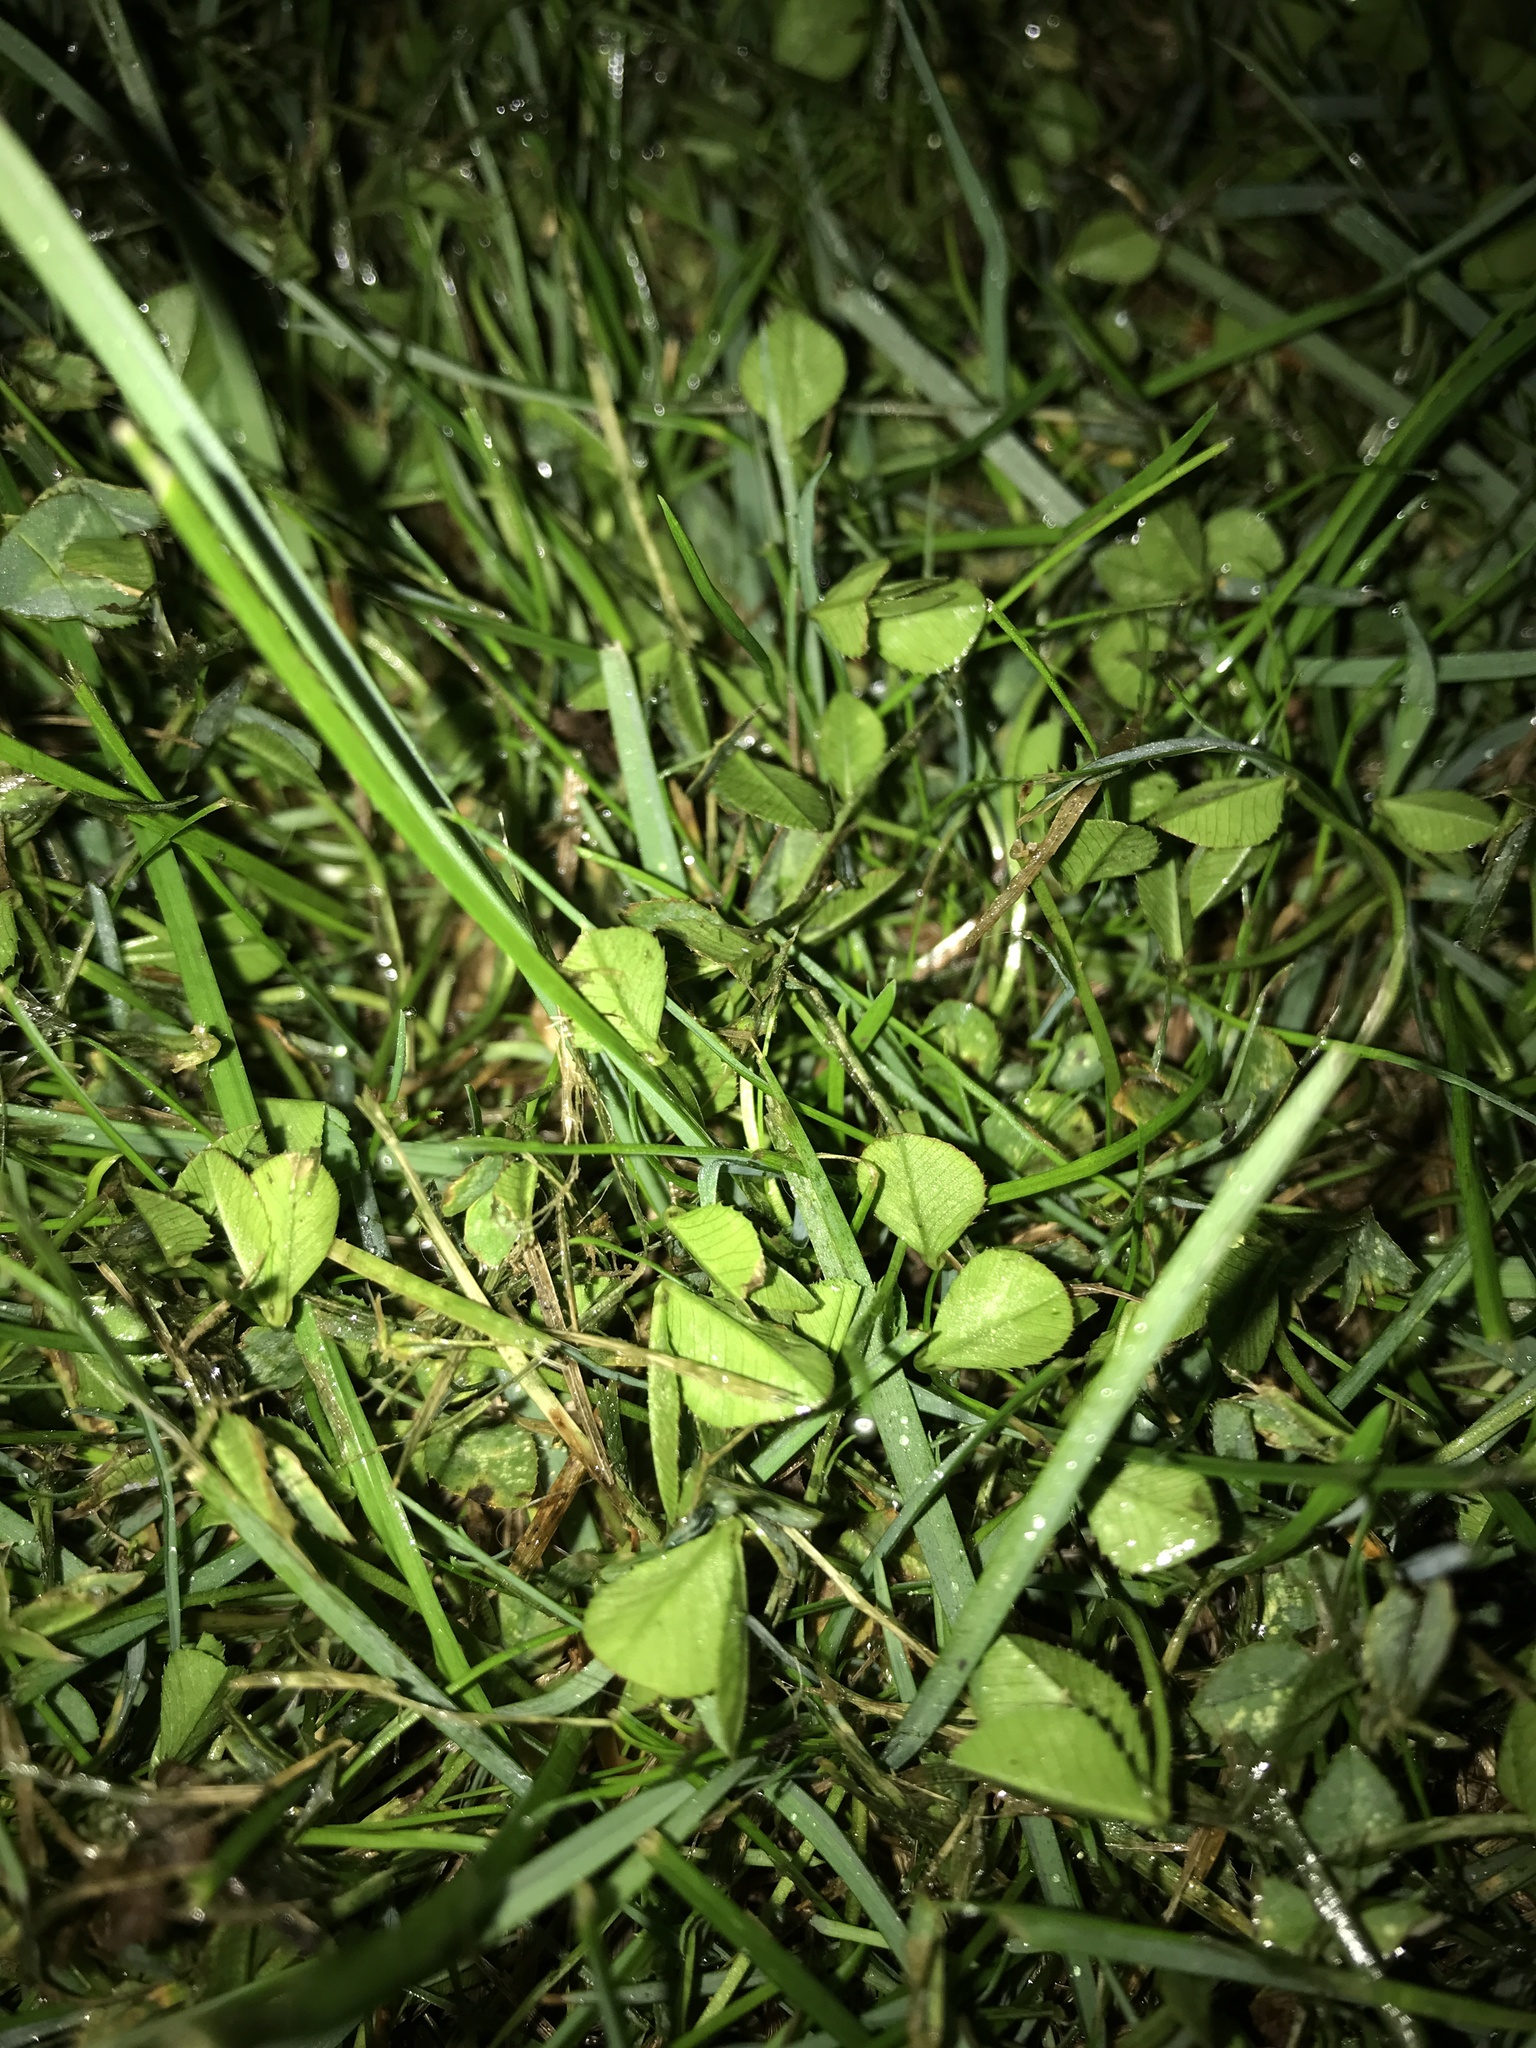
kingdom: Plantae
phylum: Tracheophyta
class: Magnoliopsida
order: Fabales
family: Fabaceae
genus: Trifolium
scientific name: Trifolium repens
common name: White clover
